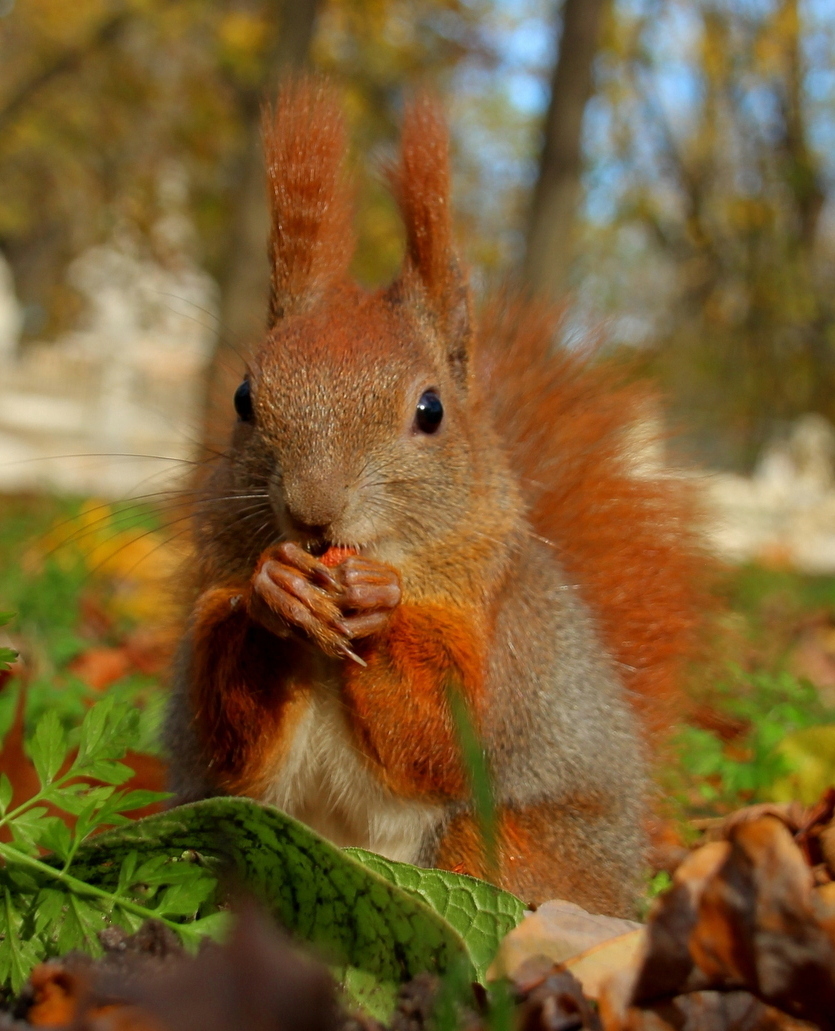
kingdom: Animalia
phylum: Chordata
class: Mammalia
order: Rodentia
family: Sciuridae
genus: Sciurus
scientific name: Sciurus vulgaris
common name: Eurasian red squirrel
